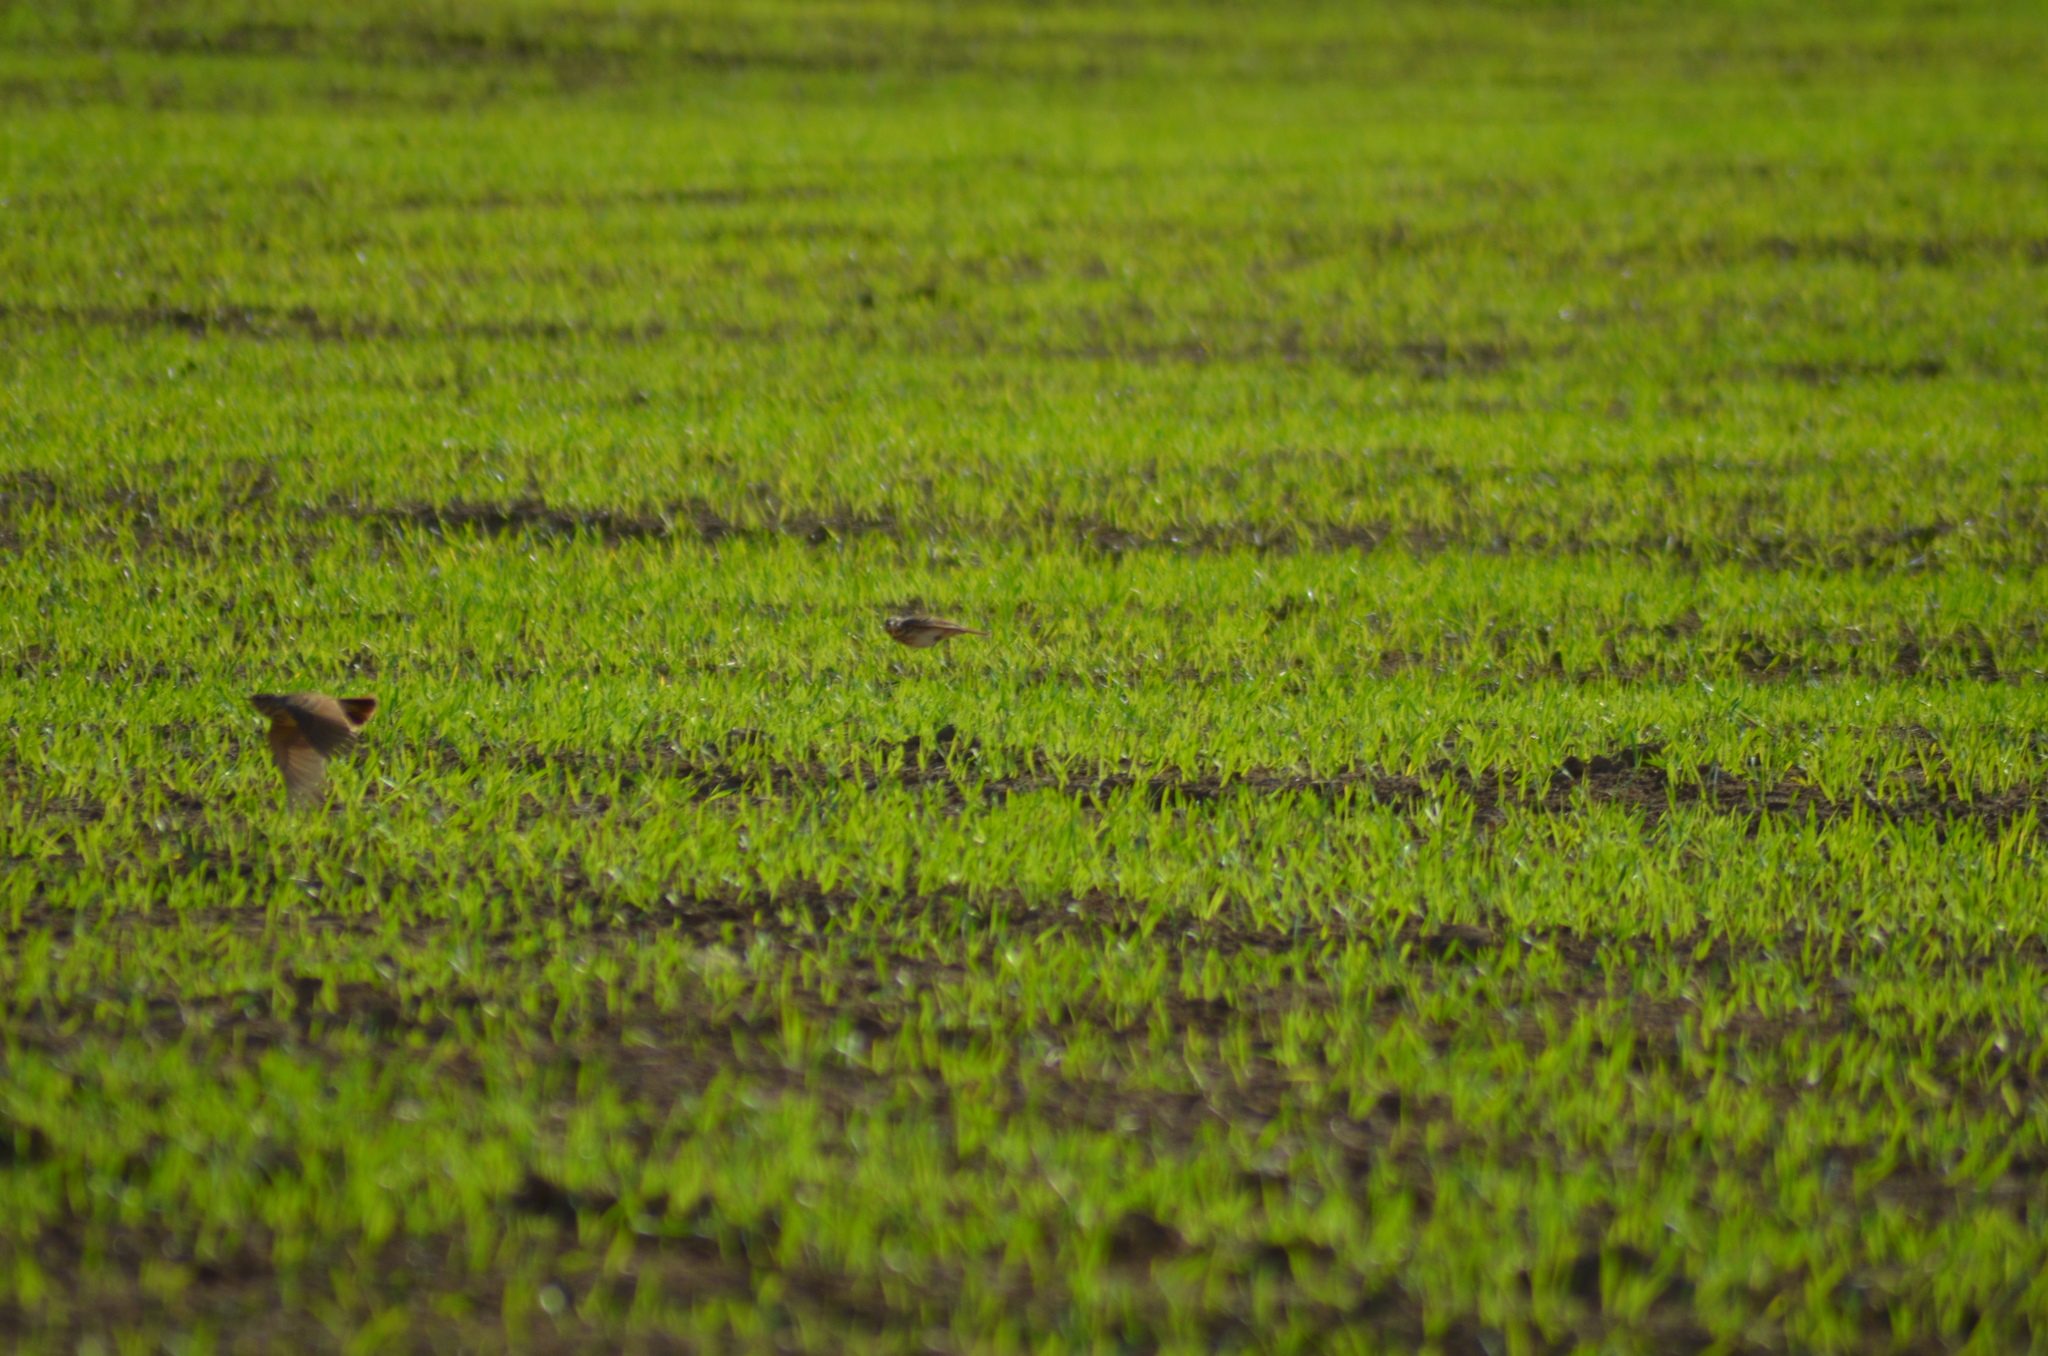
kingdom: Animalia
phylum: Chordata
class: Aves
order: Passeriformes
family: Alaudidae
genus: Galerida
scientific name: Galerida cristata
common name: Crested lark
